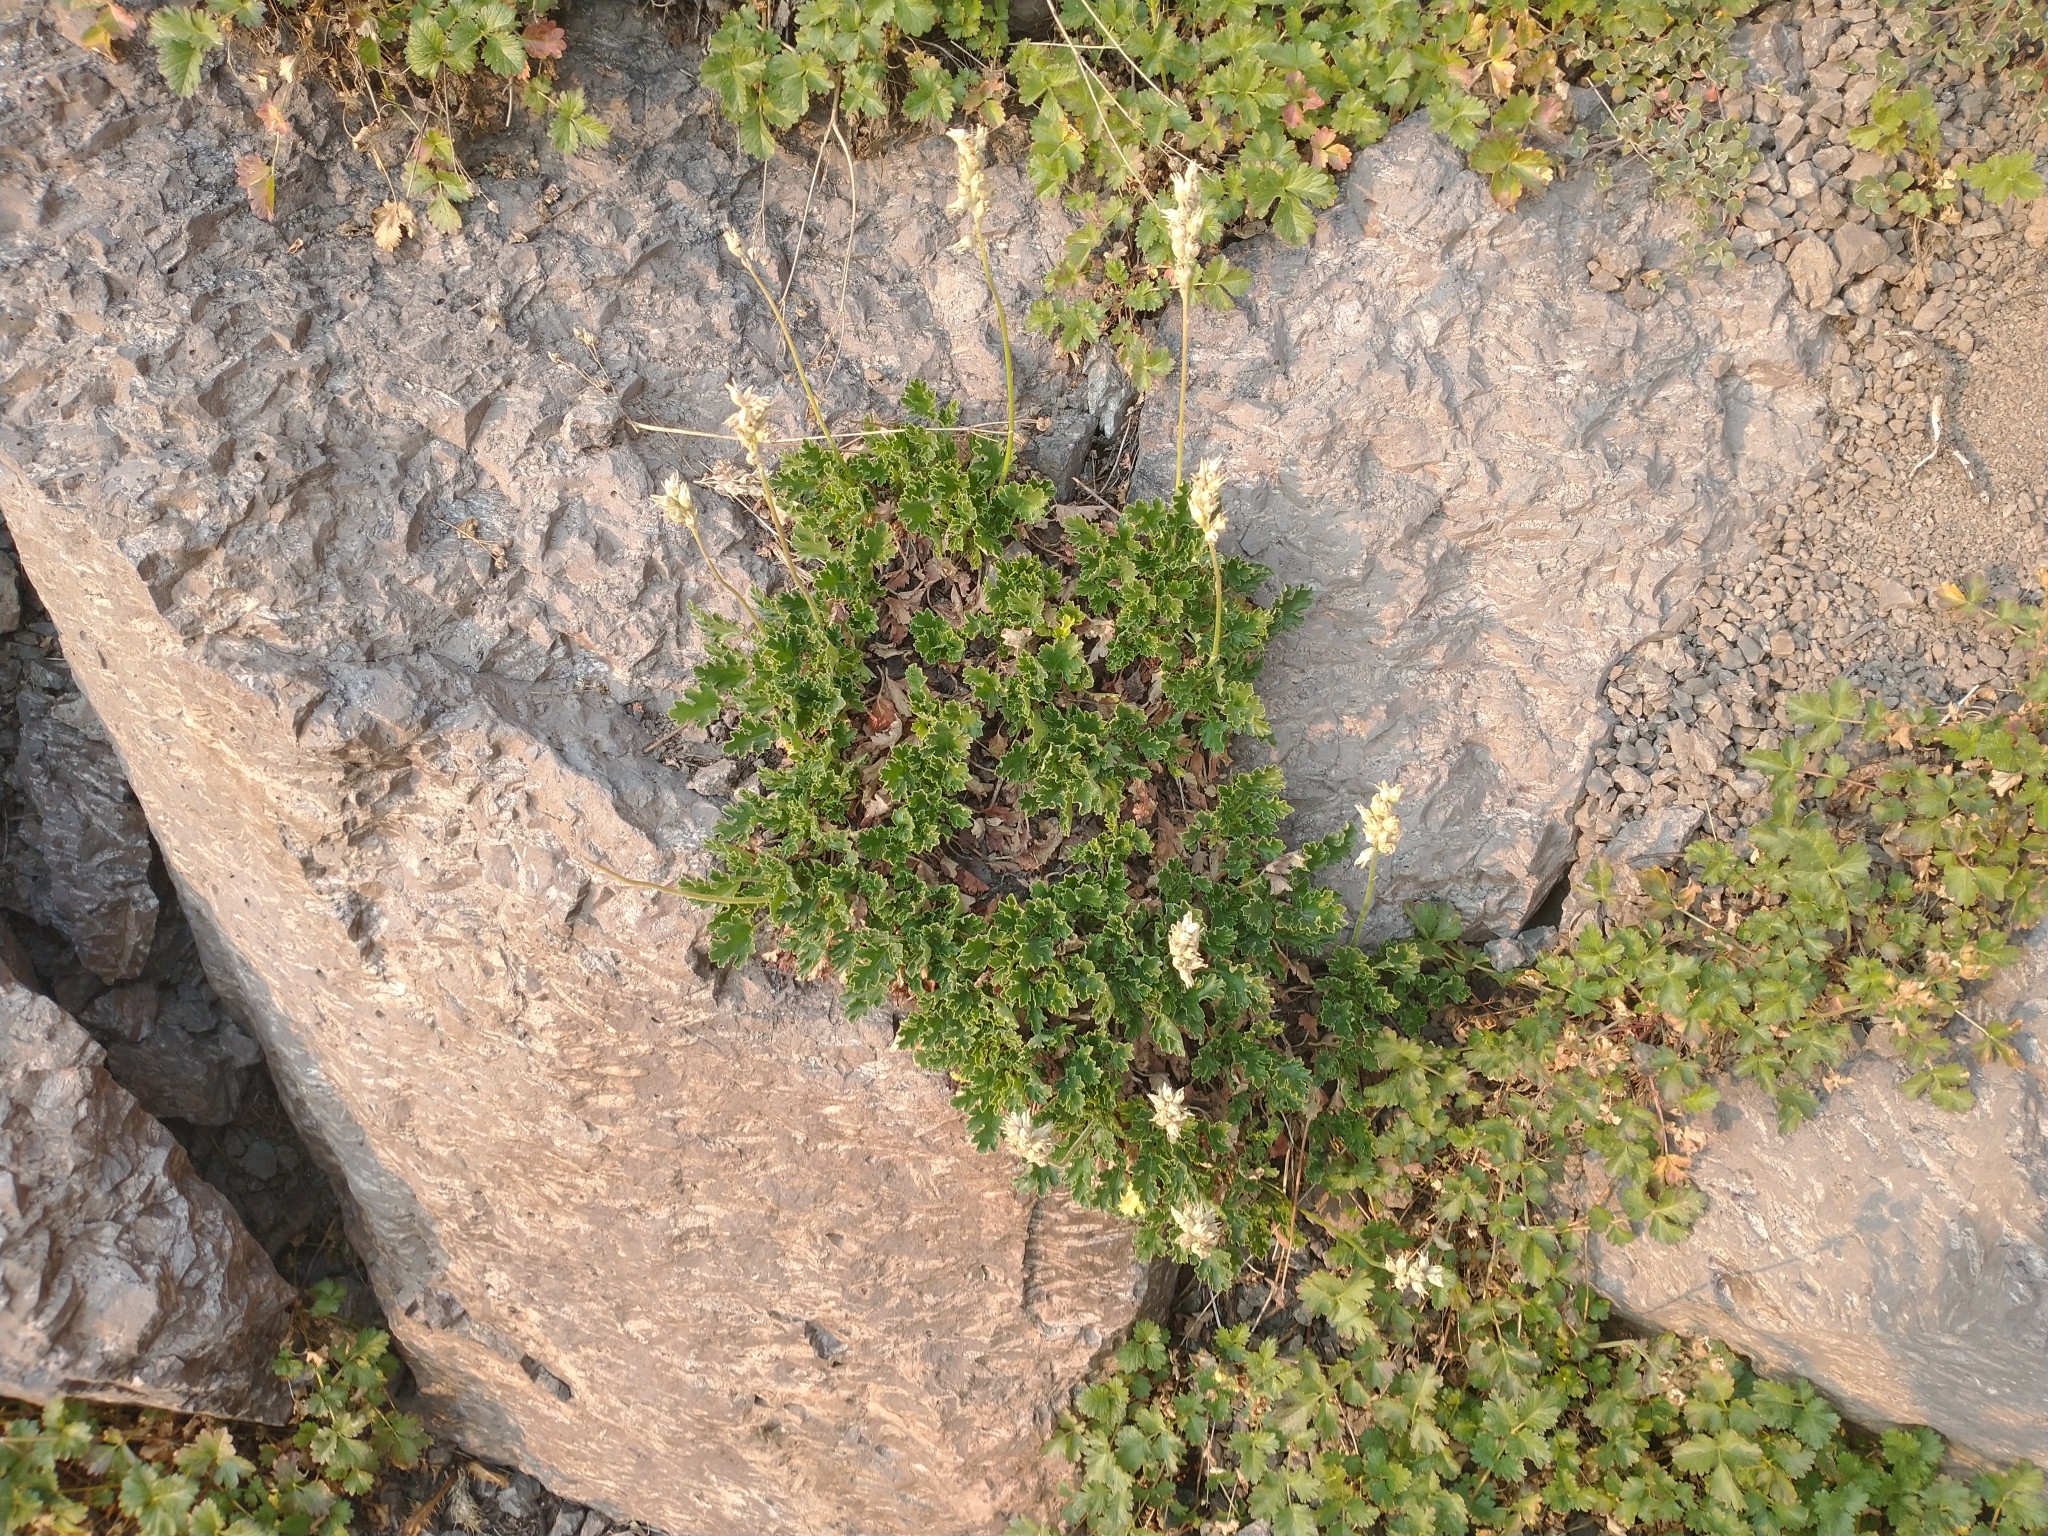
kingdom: Plantae
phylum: Tracheophyta
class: Magnoliopsida
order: Saxifragales
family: Saxifragaceae
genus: Heuchera
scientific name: Heuchera cylindrica
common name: Mat alumroot
